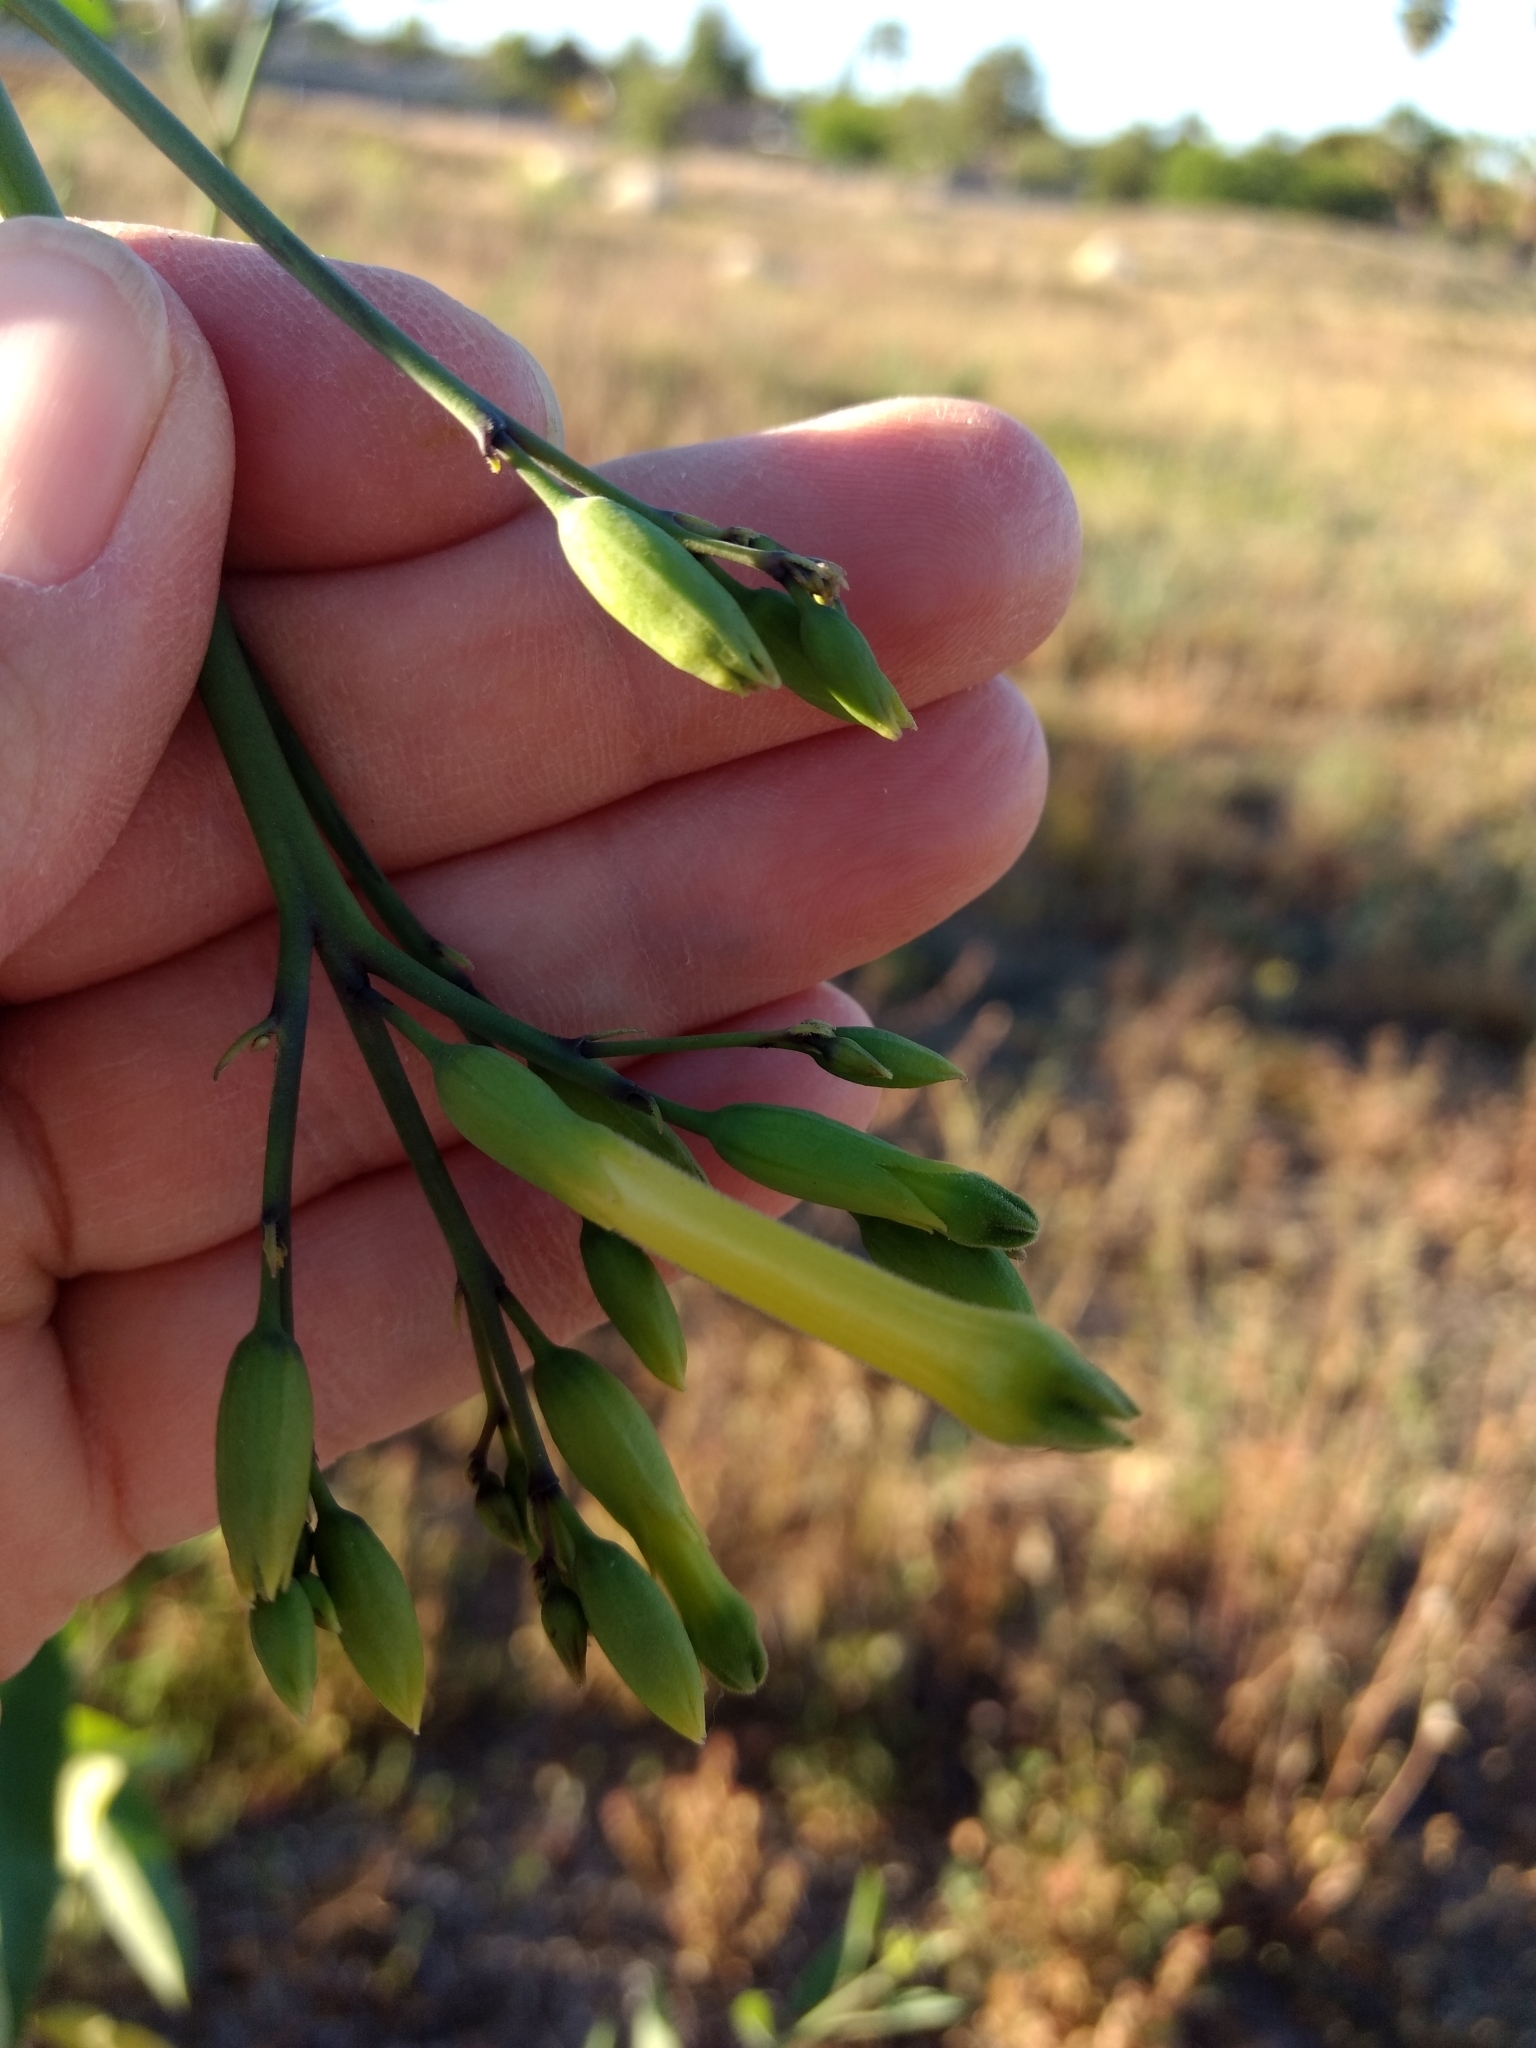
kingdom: Plantae
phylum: Tracheophyta
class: Magnoliopsida
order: Solanales
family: Solanaceae
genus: Nicotiana
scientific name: Nicotiana glauca
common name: Tree tobacco
